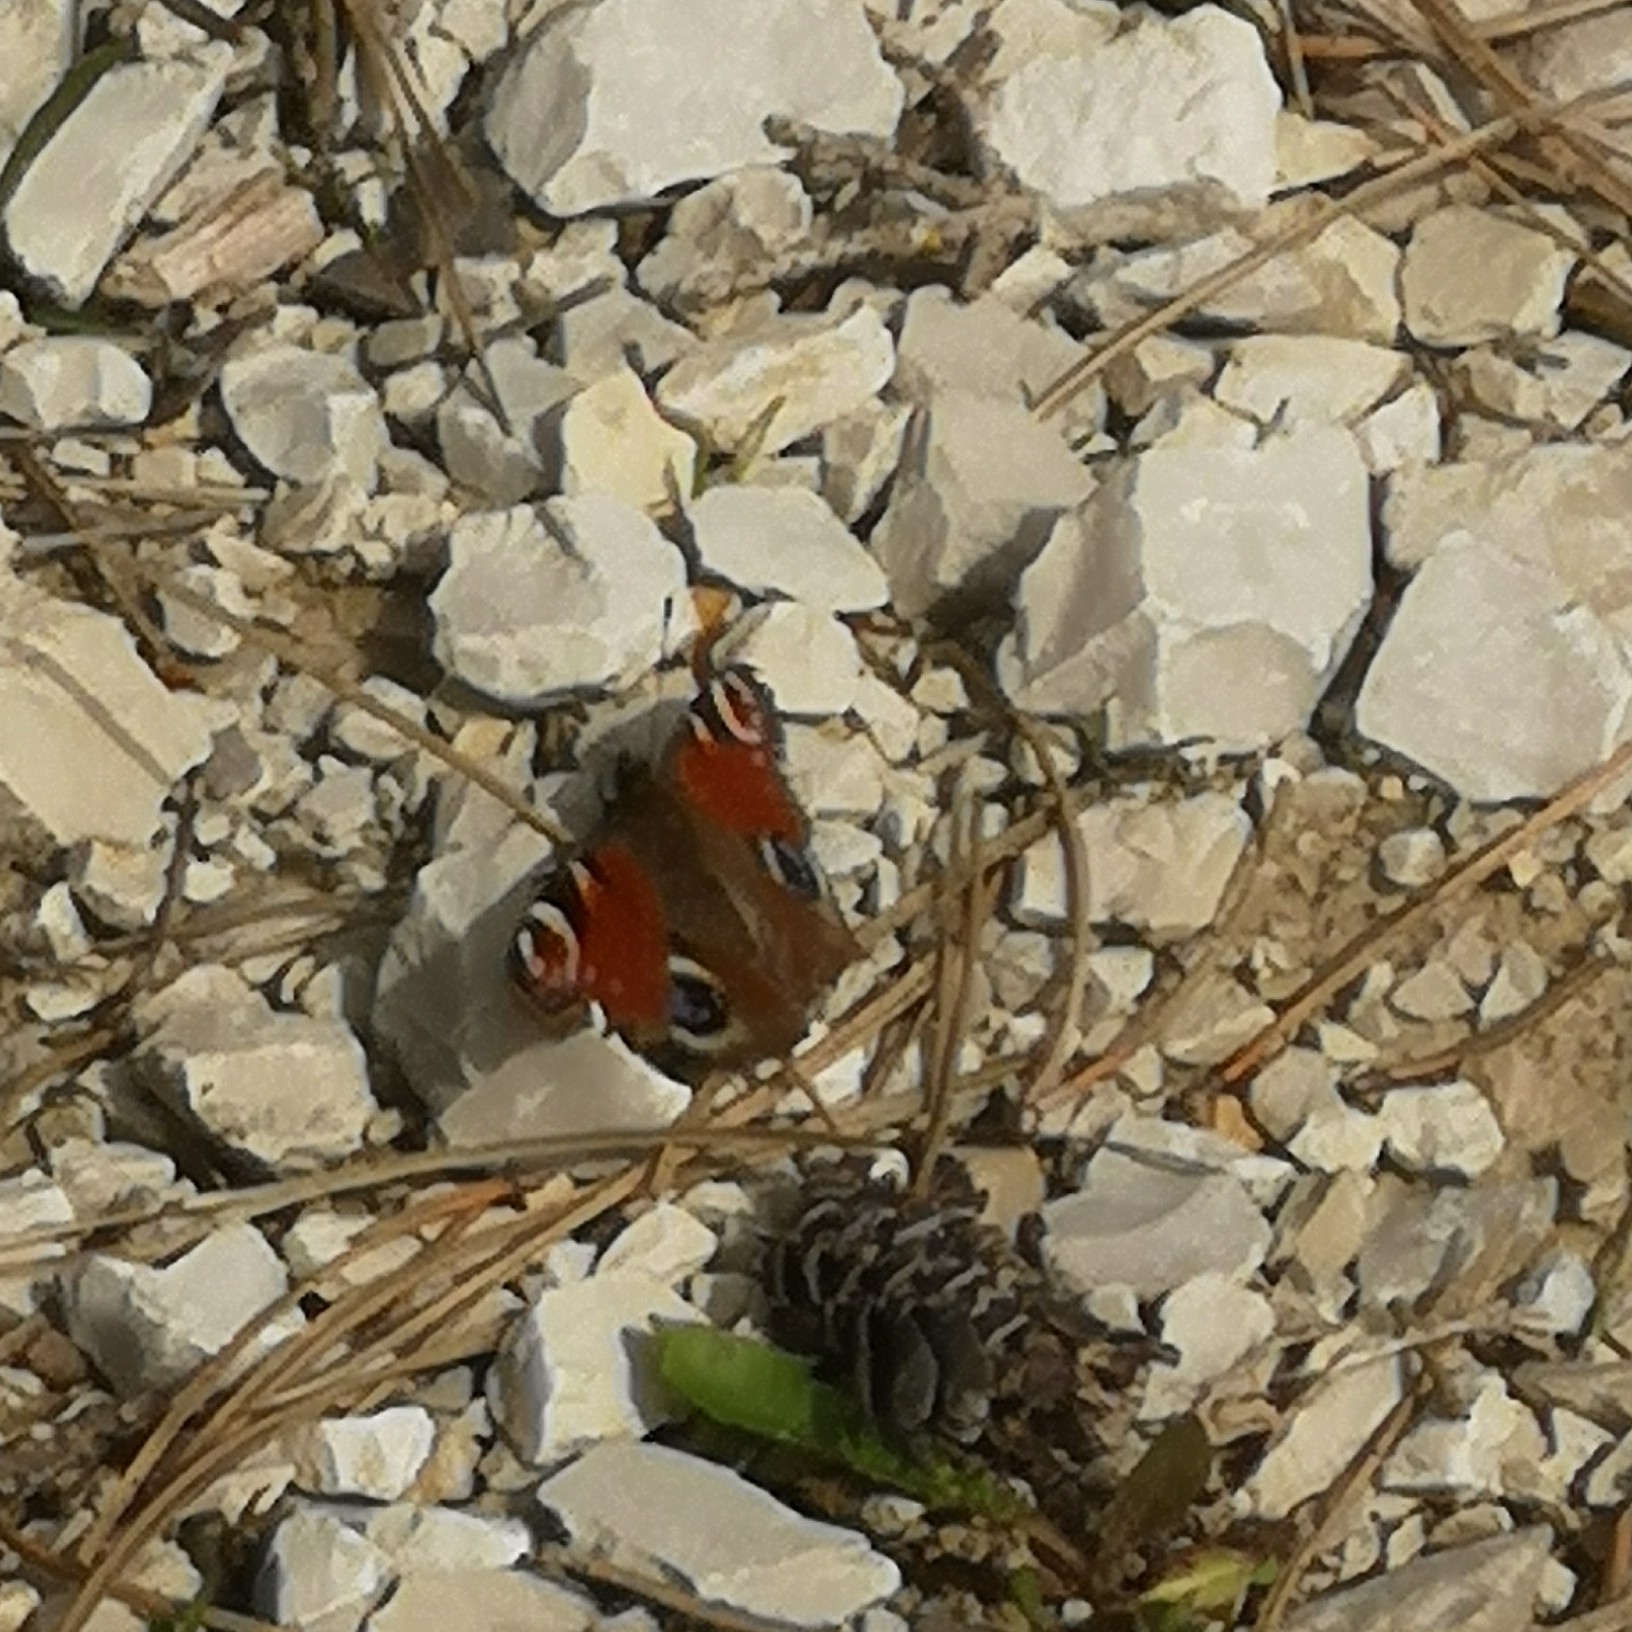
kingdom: Animalia
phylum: Arthropoda
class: Insecta
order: Lepidoptera
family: Nymphalidae
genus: Aglais
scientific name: Aglais io
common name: Peacock
